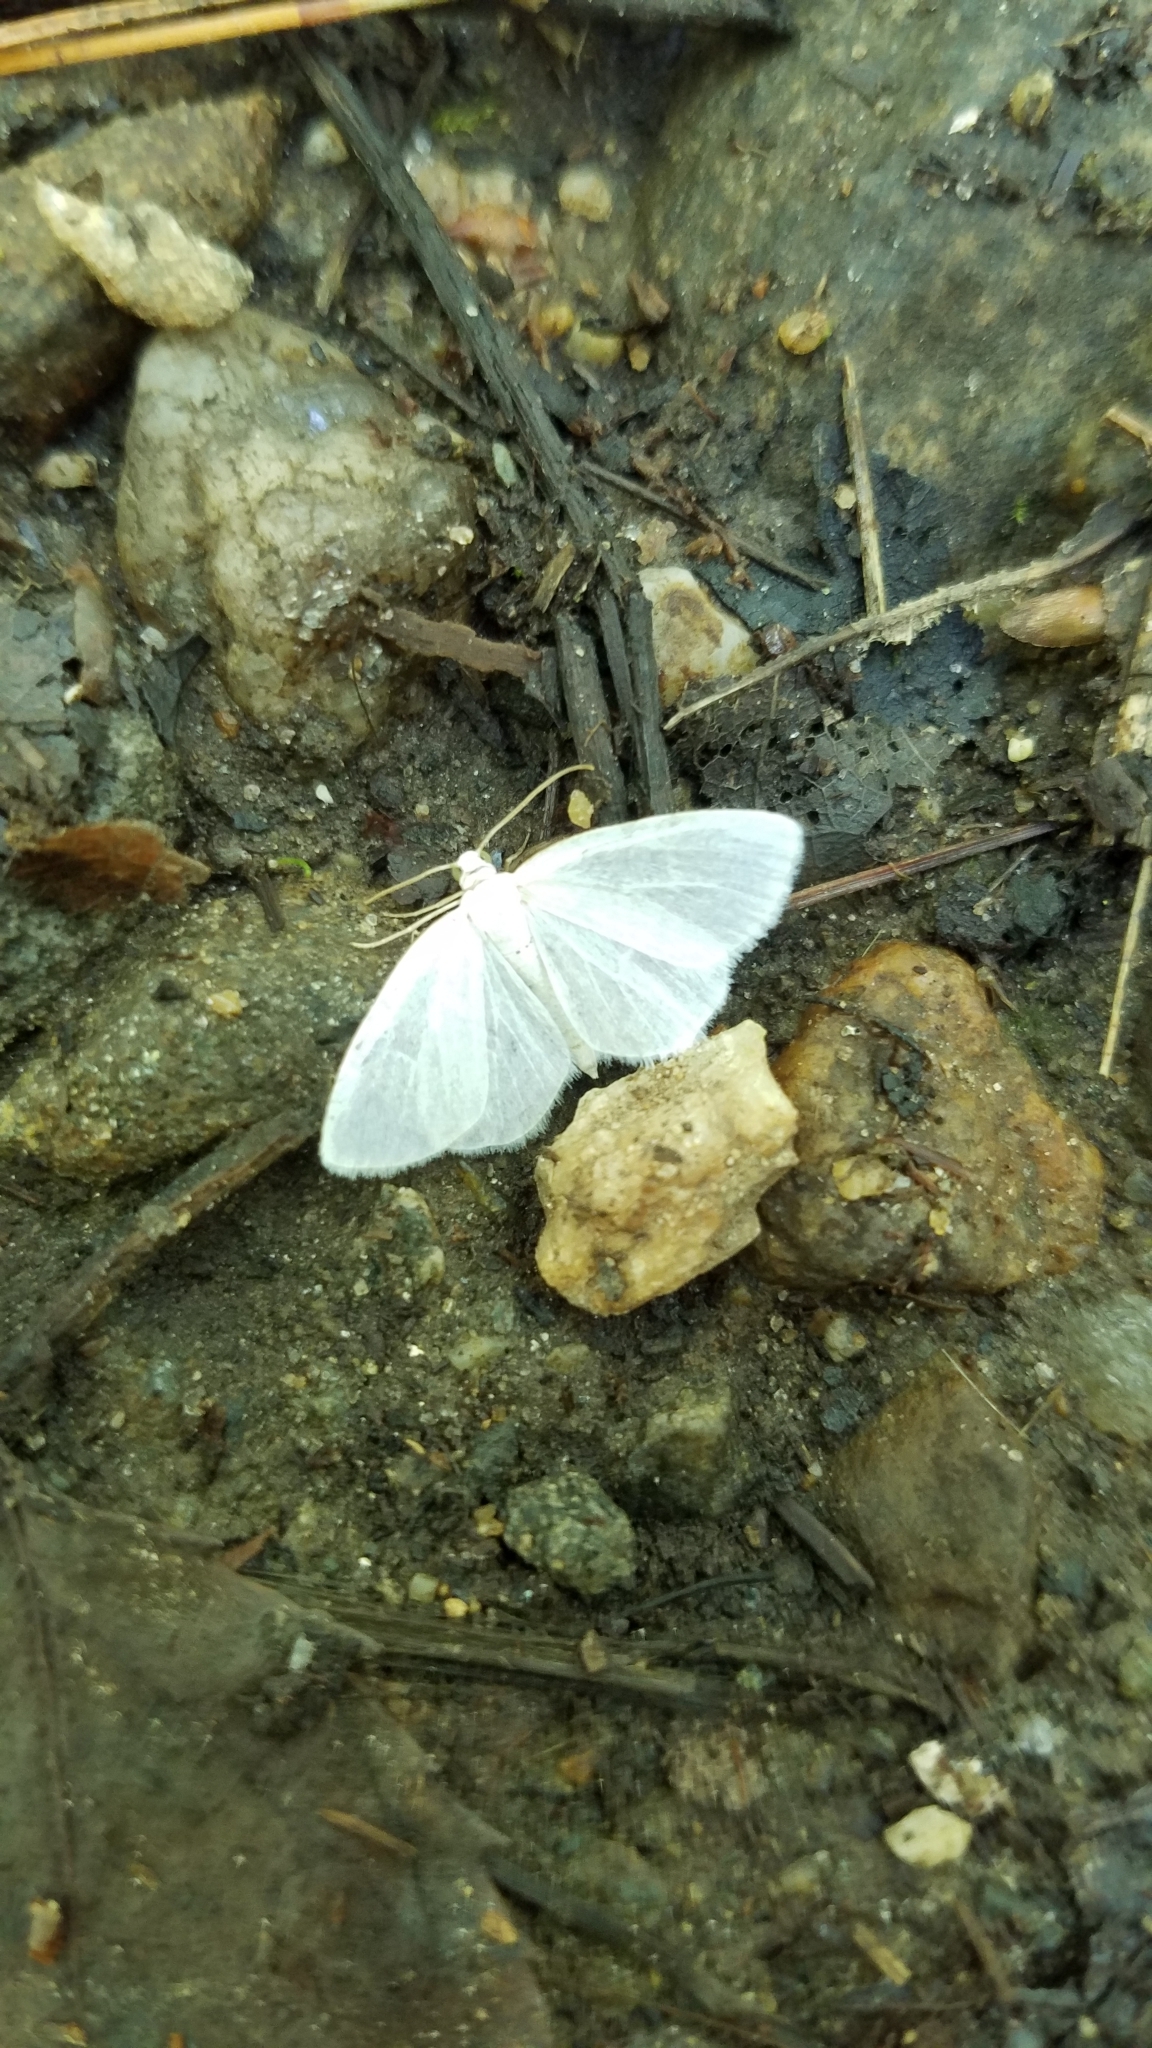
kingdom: Animalia
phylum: Arthropoda
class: Insecta
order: Lepidoptera
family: Geometridae
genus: Lomographa
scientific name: Lomographa vestaliata
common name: White spring moth
